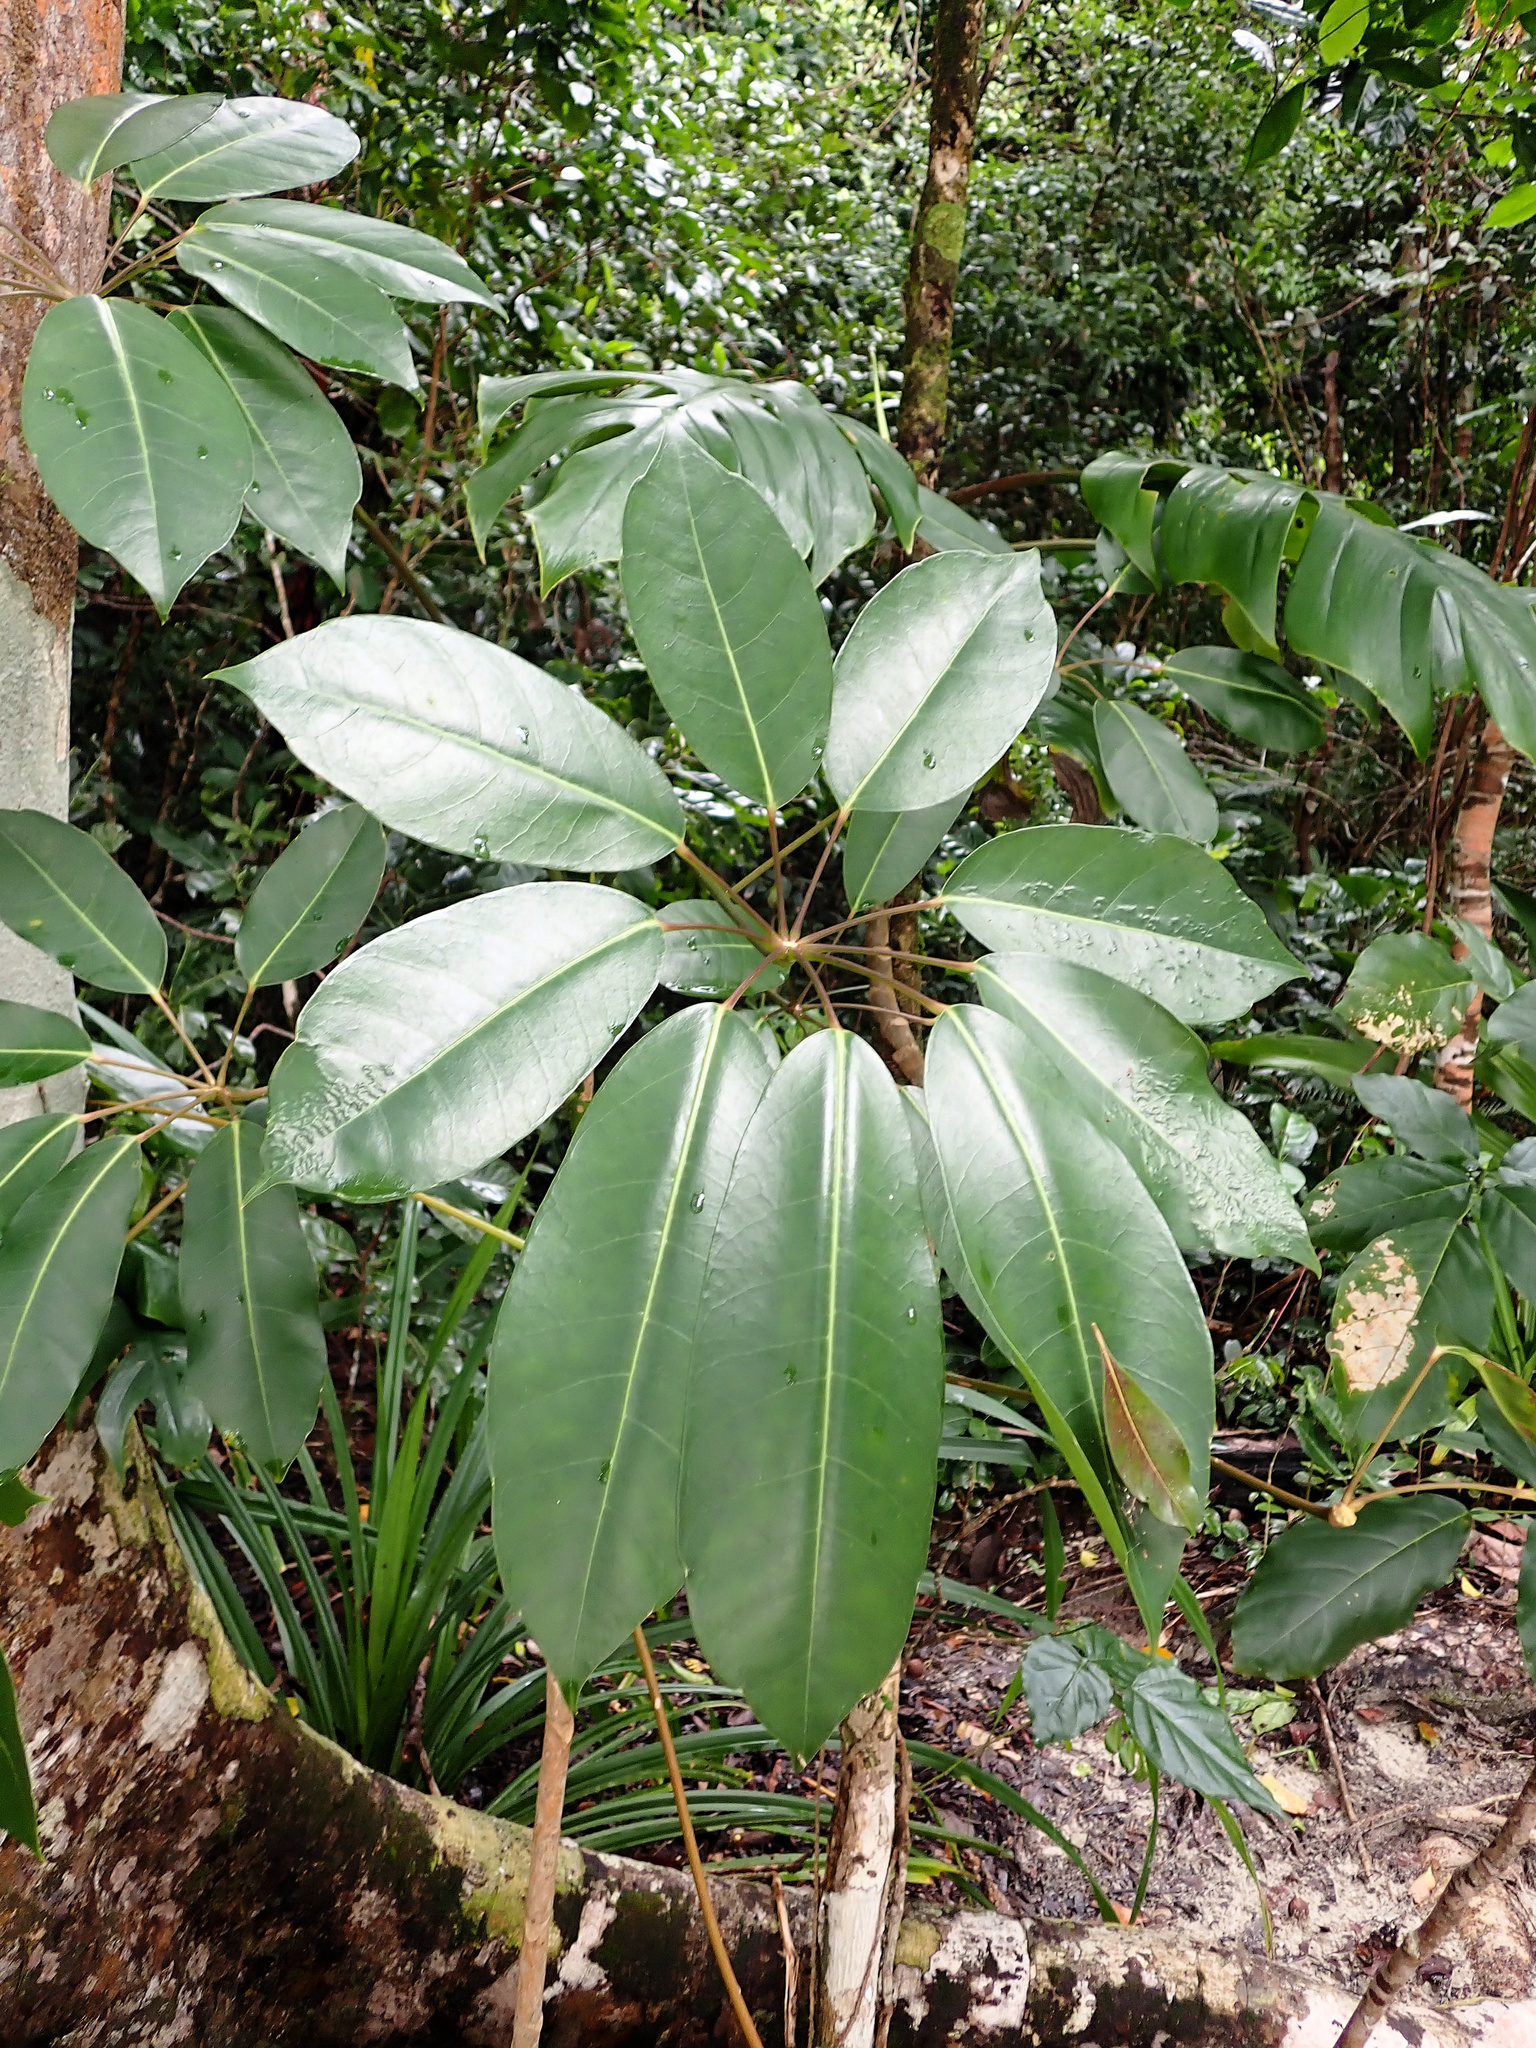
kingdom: Plantae
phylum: Tracheophyta
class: Magnoliopsida
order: Apiales
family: Araliaceae
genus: Heptapleurum
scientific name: Heptapleurum actinophyllum
